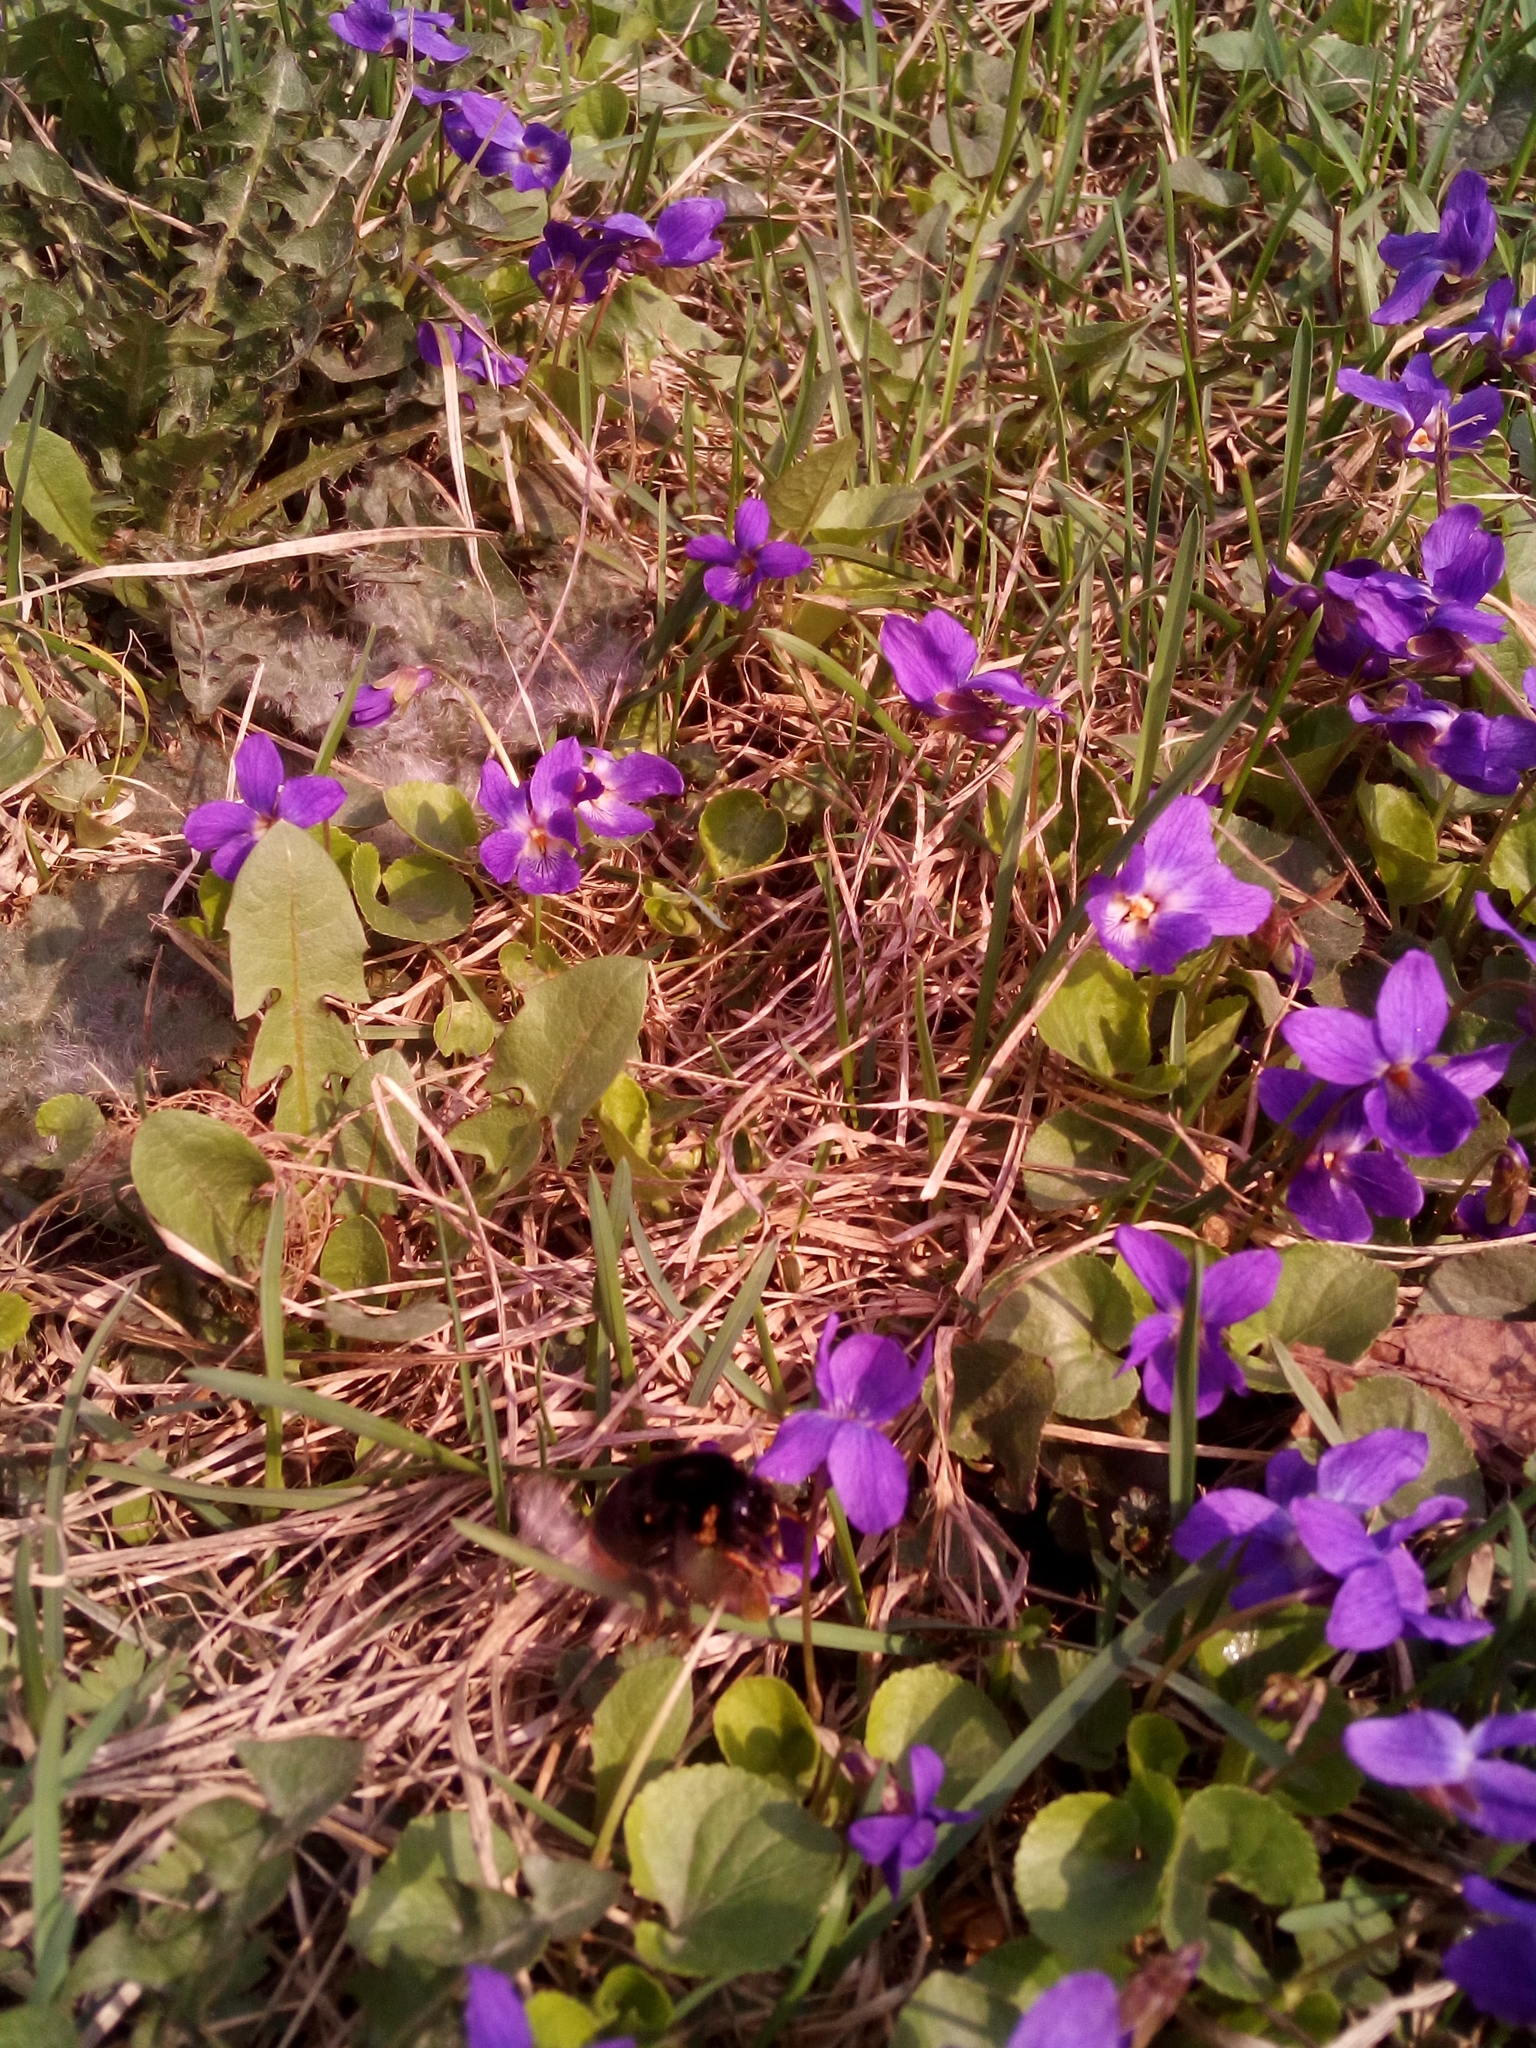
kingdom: Plantae
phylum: Tracheophyta
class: Magnoliopsida
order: Malpighiales
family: Violaceae
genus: Viola
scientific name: Viola odorata
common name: Sweet violet
